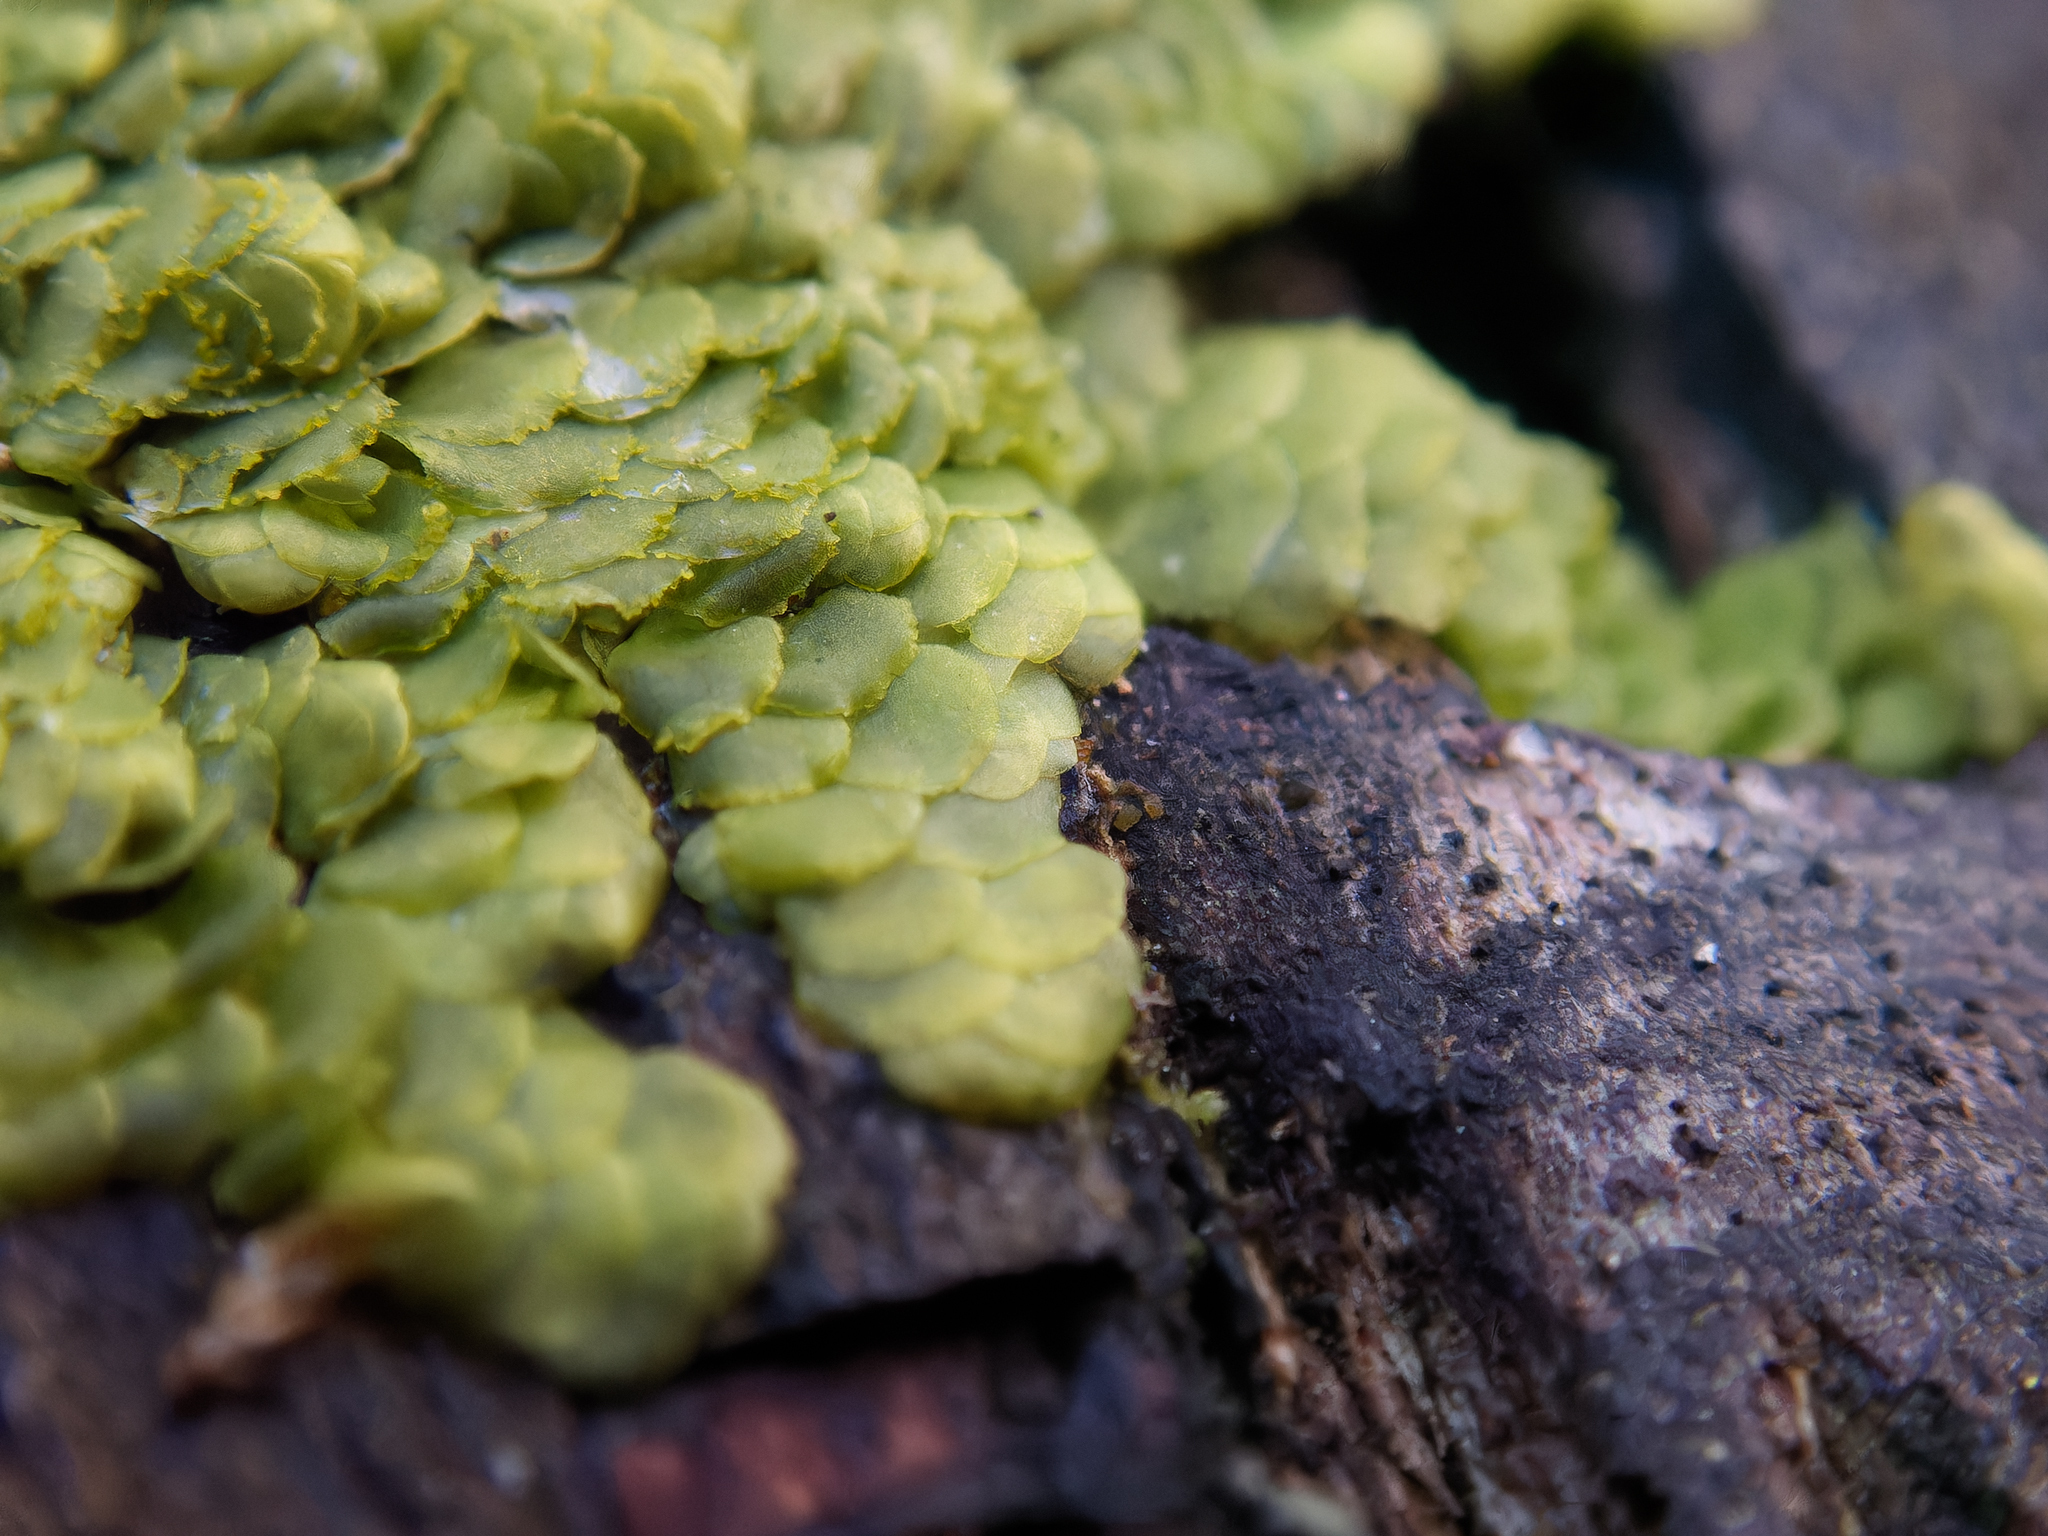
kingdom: Plantae
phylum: Marchantiophyta
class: Jungermanniopsida
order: Porellales
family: Radulaceae
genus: Radula
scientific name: Radula complanata
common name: Flat-leaved scalewort
